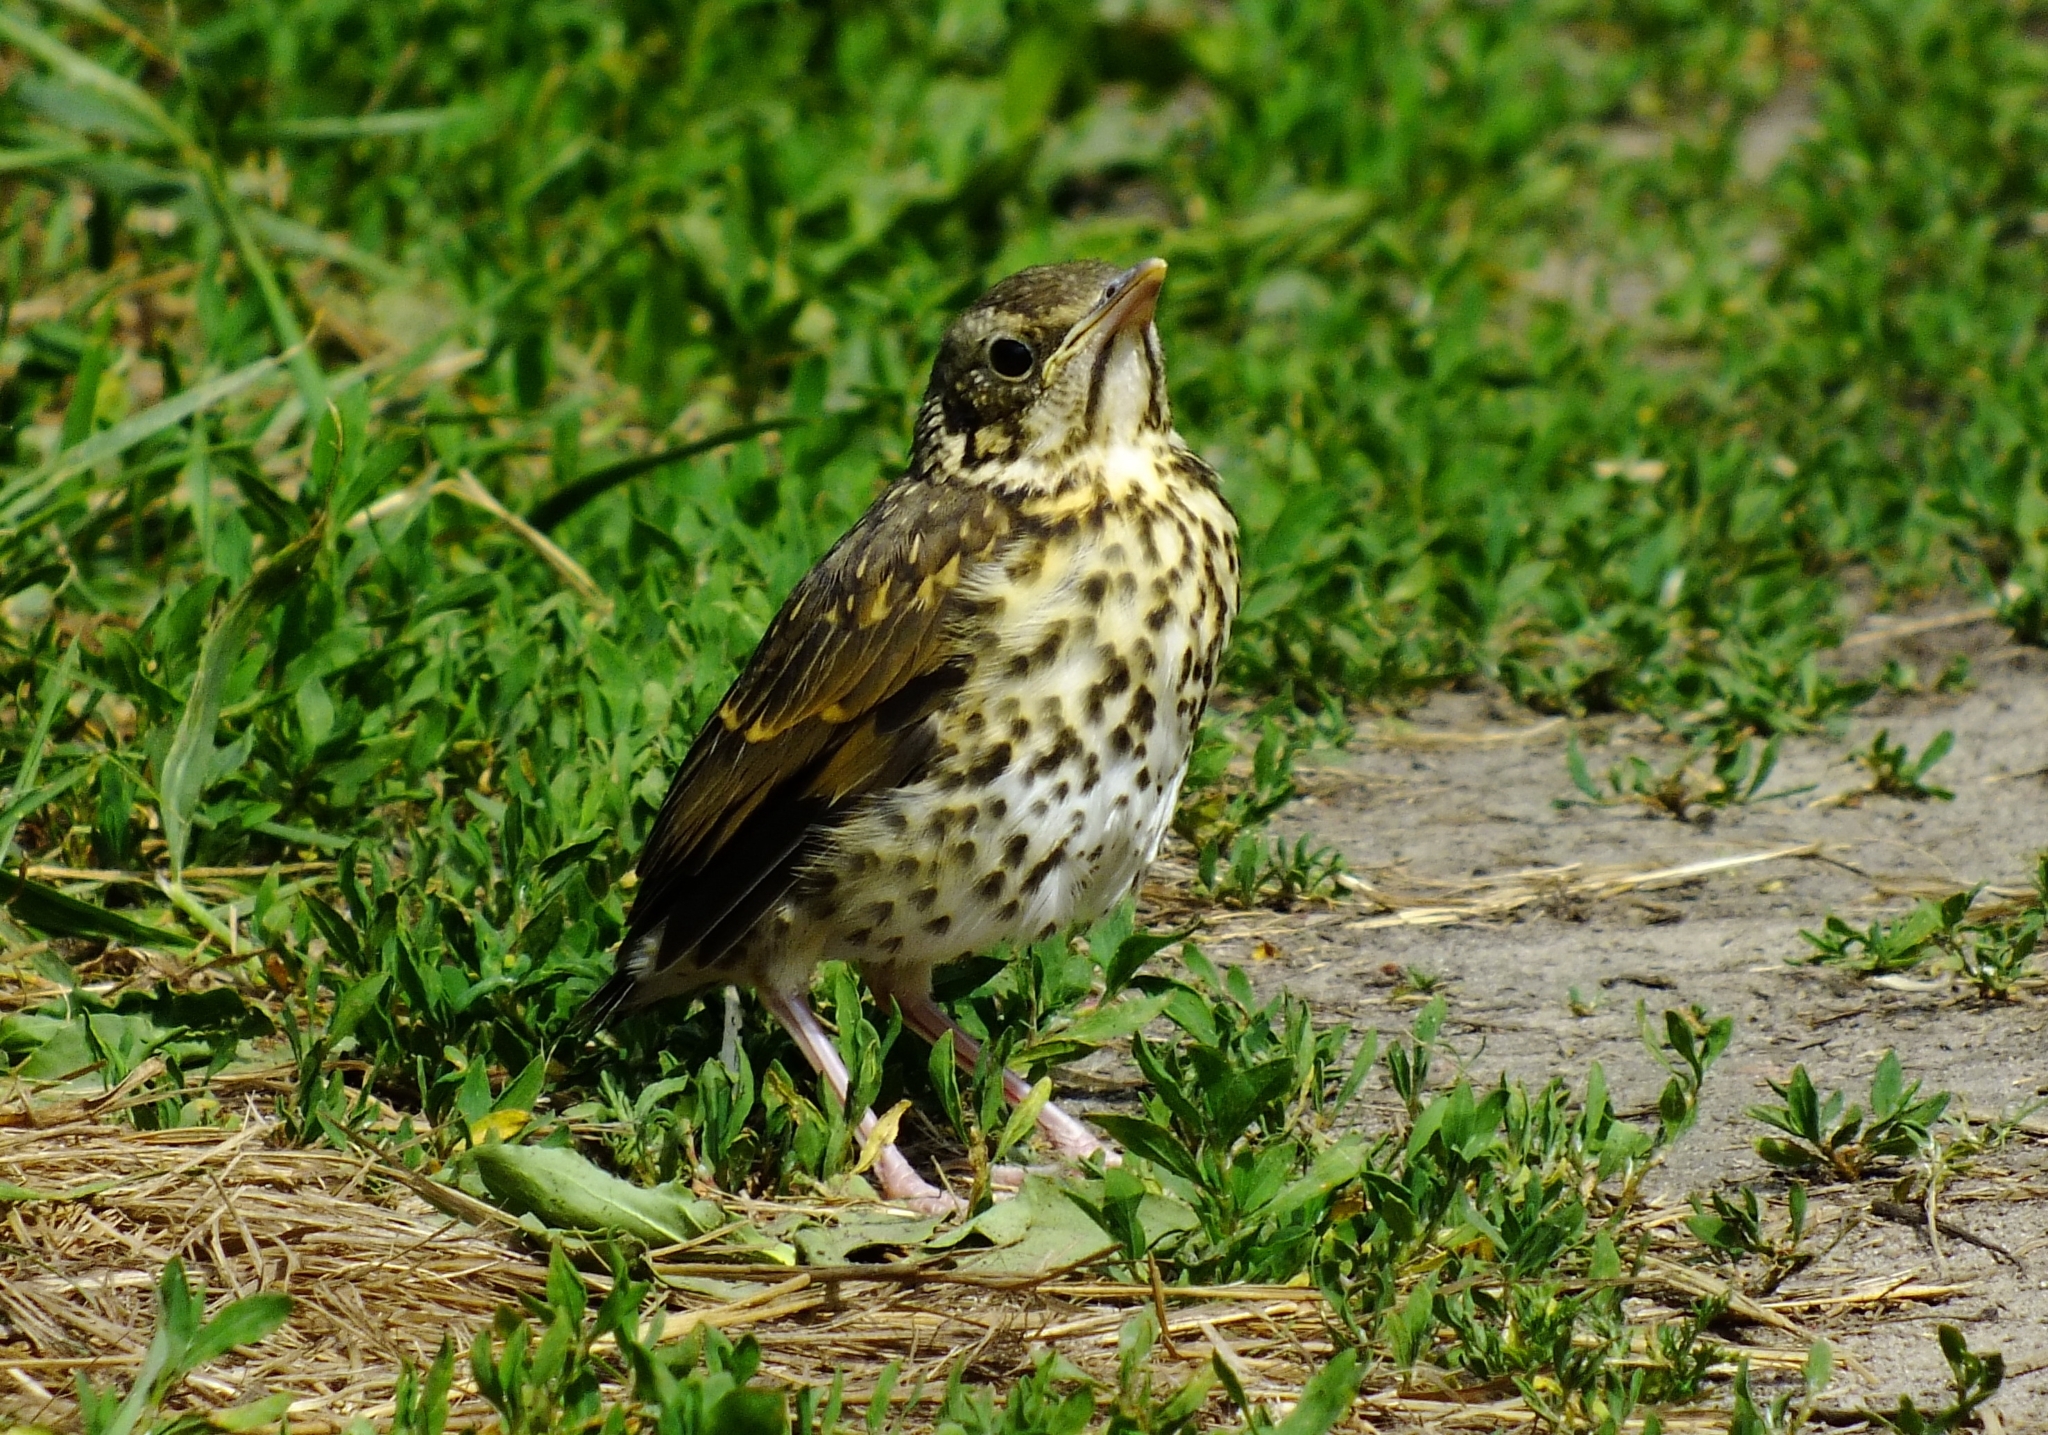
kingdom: Animalia
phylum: Chordata
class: Aves
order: Passeriformes
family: Turdidae
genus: Turdus
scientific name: Turdus philomelos
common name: Song thrush
